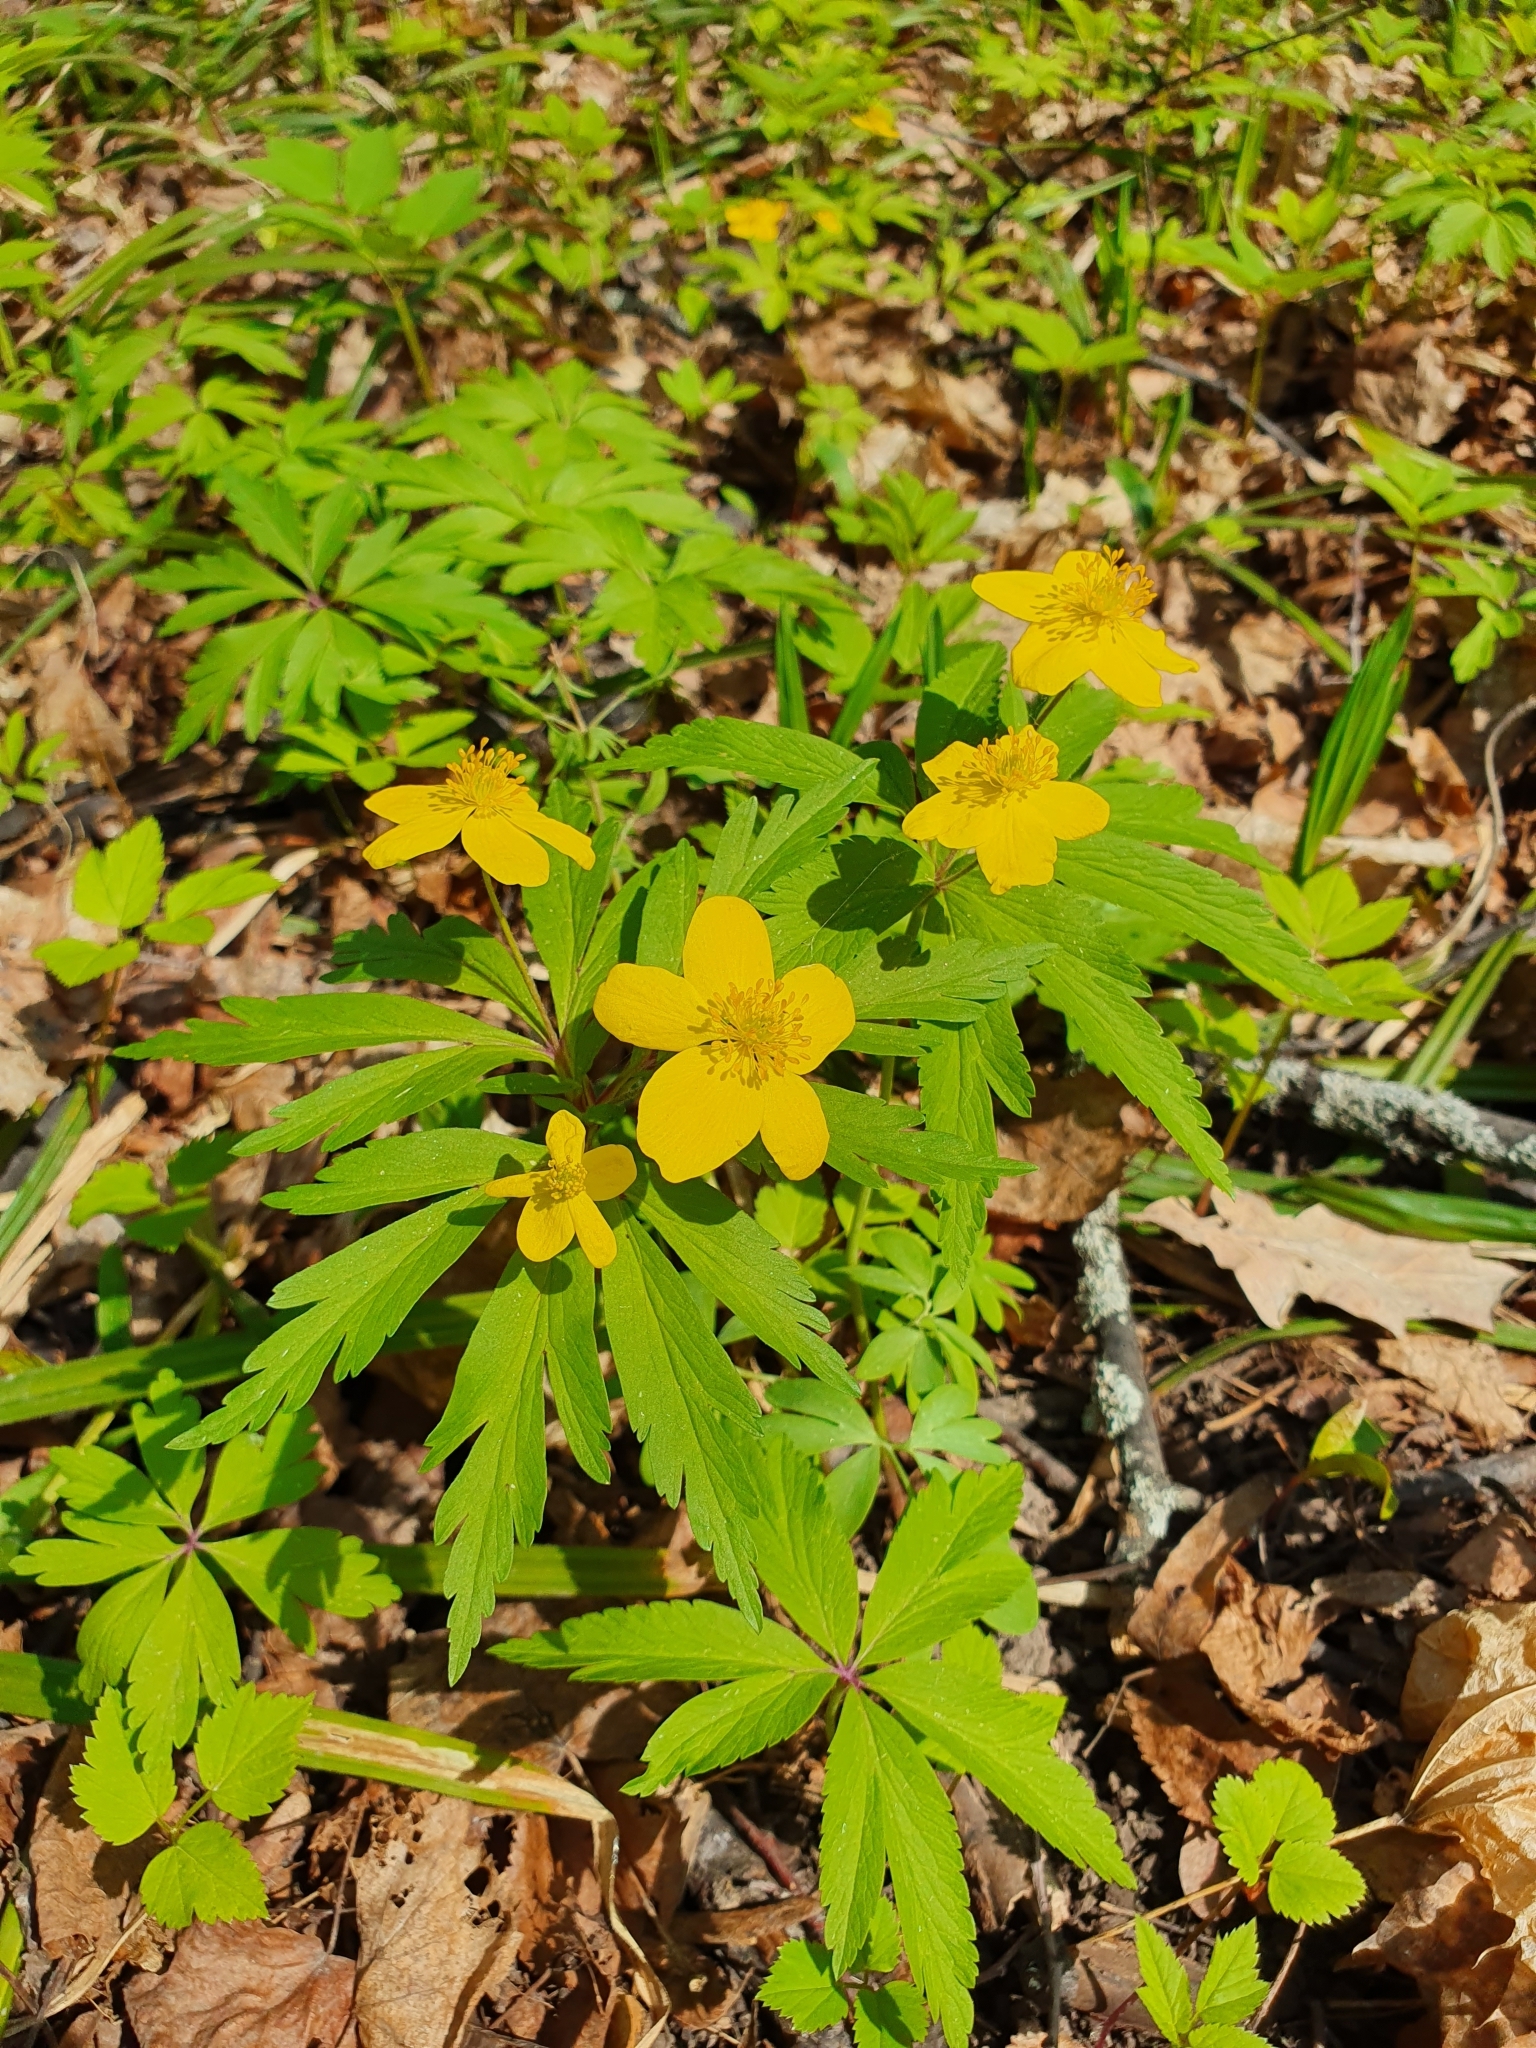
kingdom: Plantae
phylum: Tracheophyta
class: Magnoliopsida
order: Ranunculales
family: Ranunculaceae
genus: Anemone
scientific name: Anemone ranunculoides
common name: Yellow anemone
